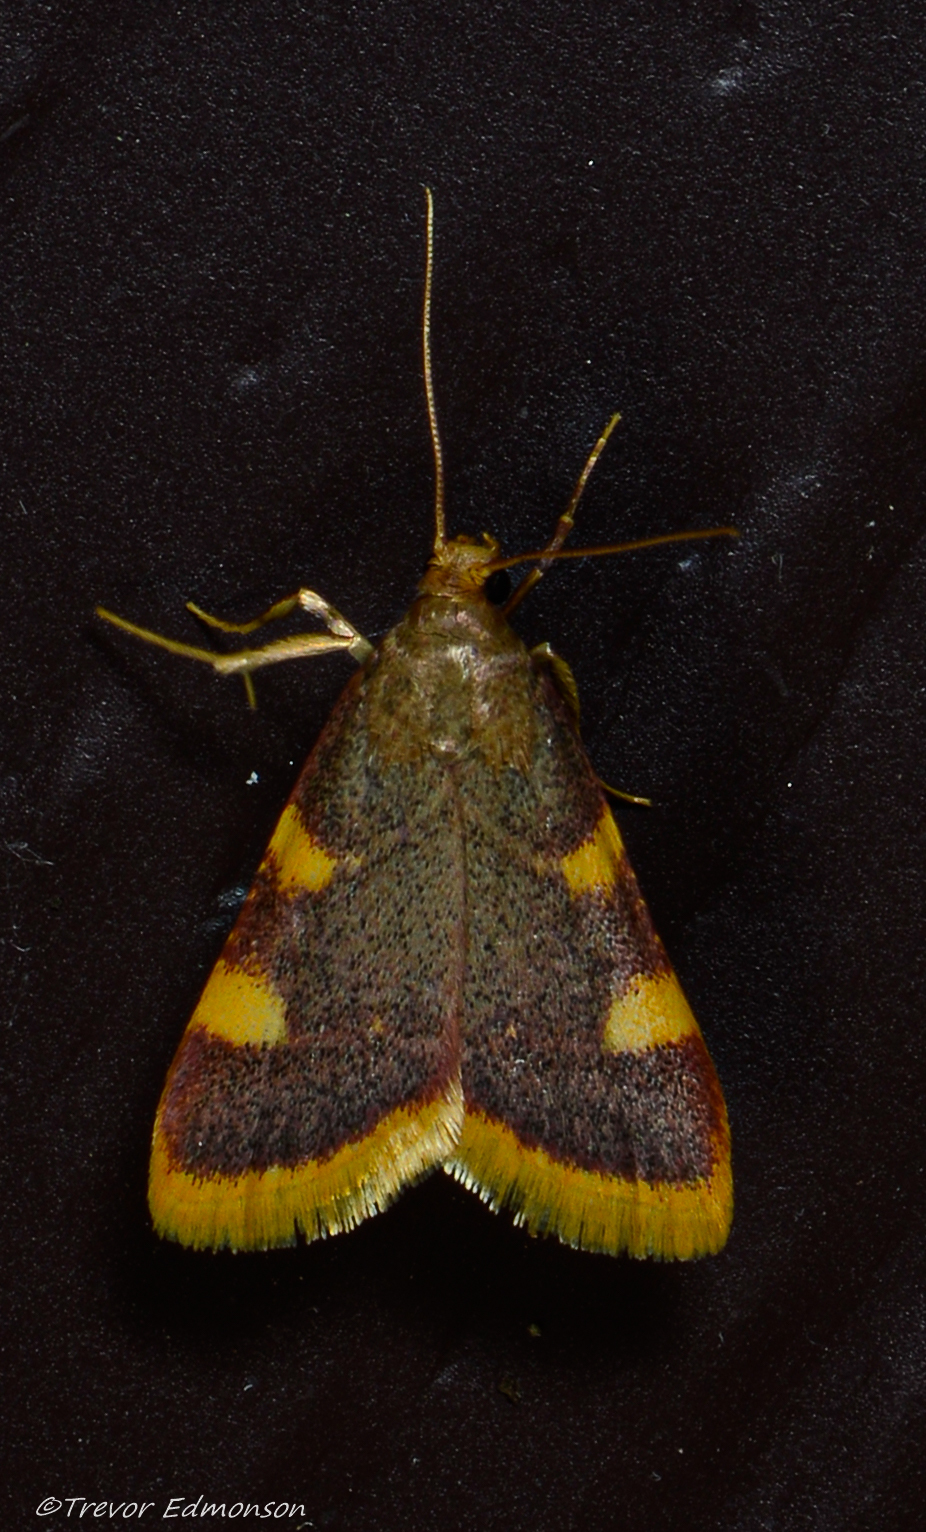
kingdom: Animalia
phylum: Arthropoda
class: Insecta
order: Lepidoptera
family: Pyralidae
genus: Hypsopygia
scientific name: Hypsopygia costalis
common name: Gold triangle
